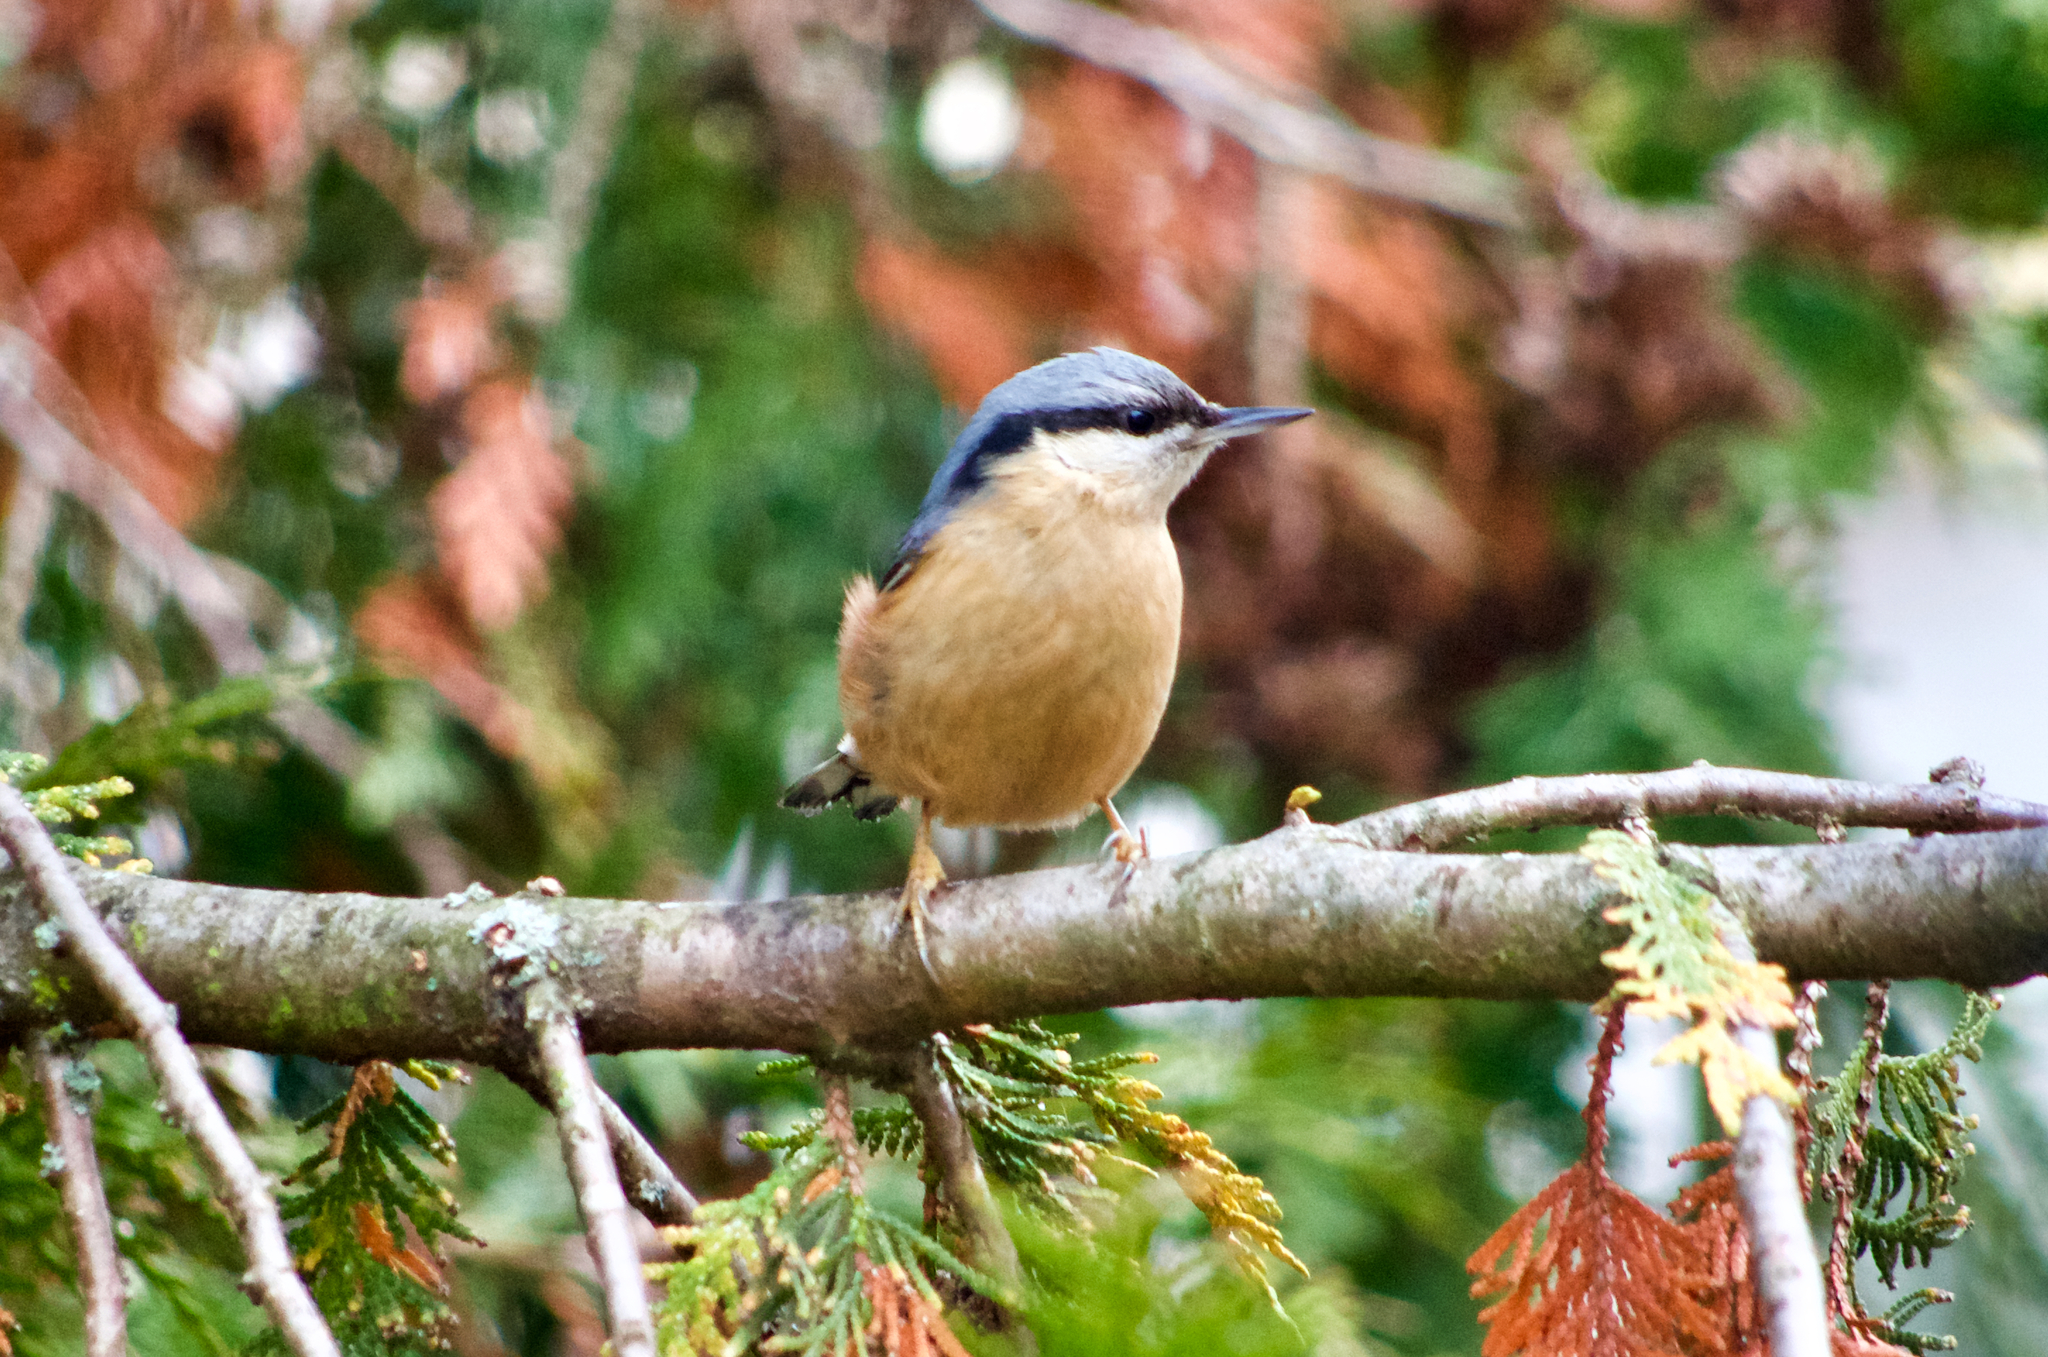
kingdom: Animalia
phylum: Chordata
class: Aves
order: Passeriformes
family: Sittidae
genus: Sitta
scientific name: Sitta europaea
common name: Eurasian nuthatch
